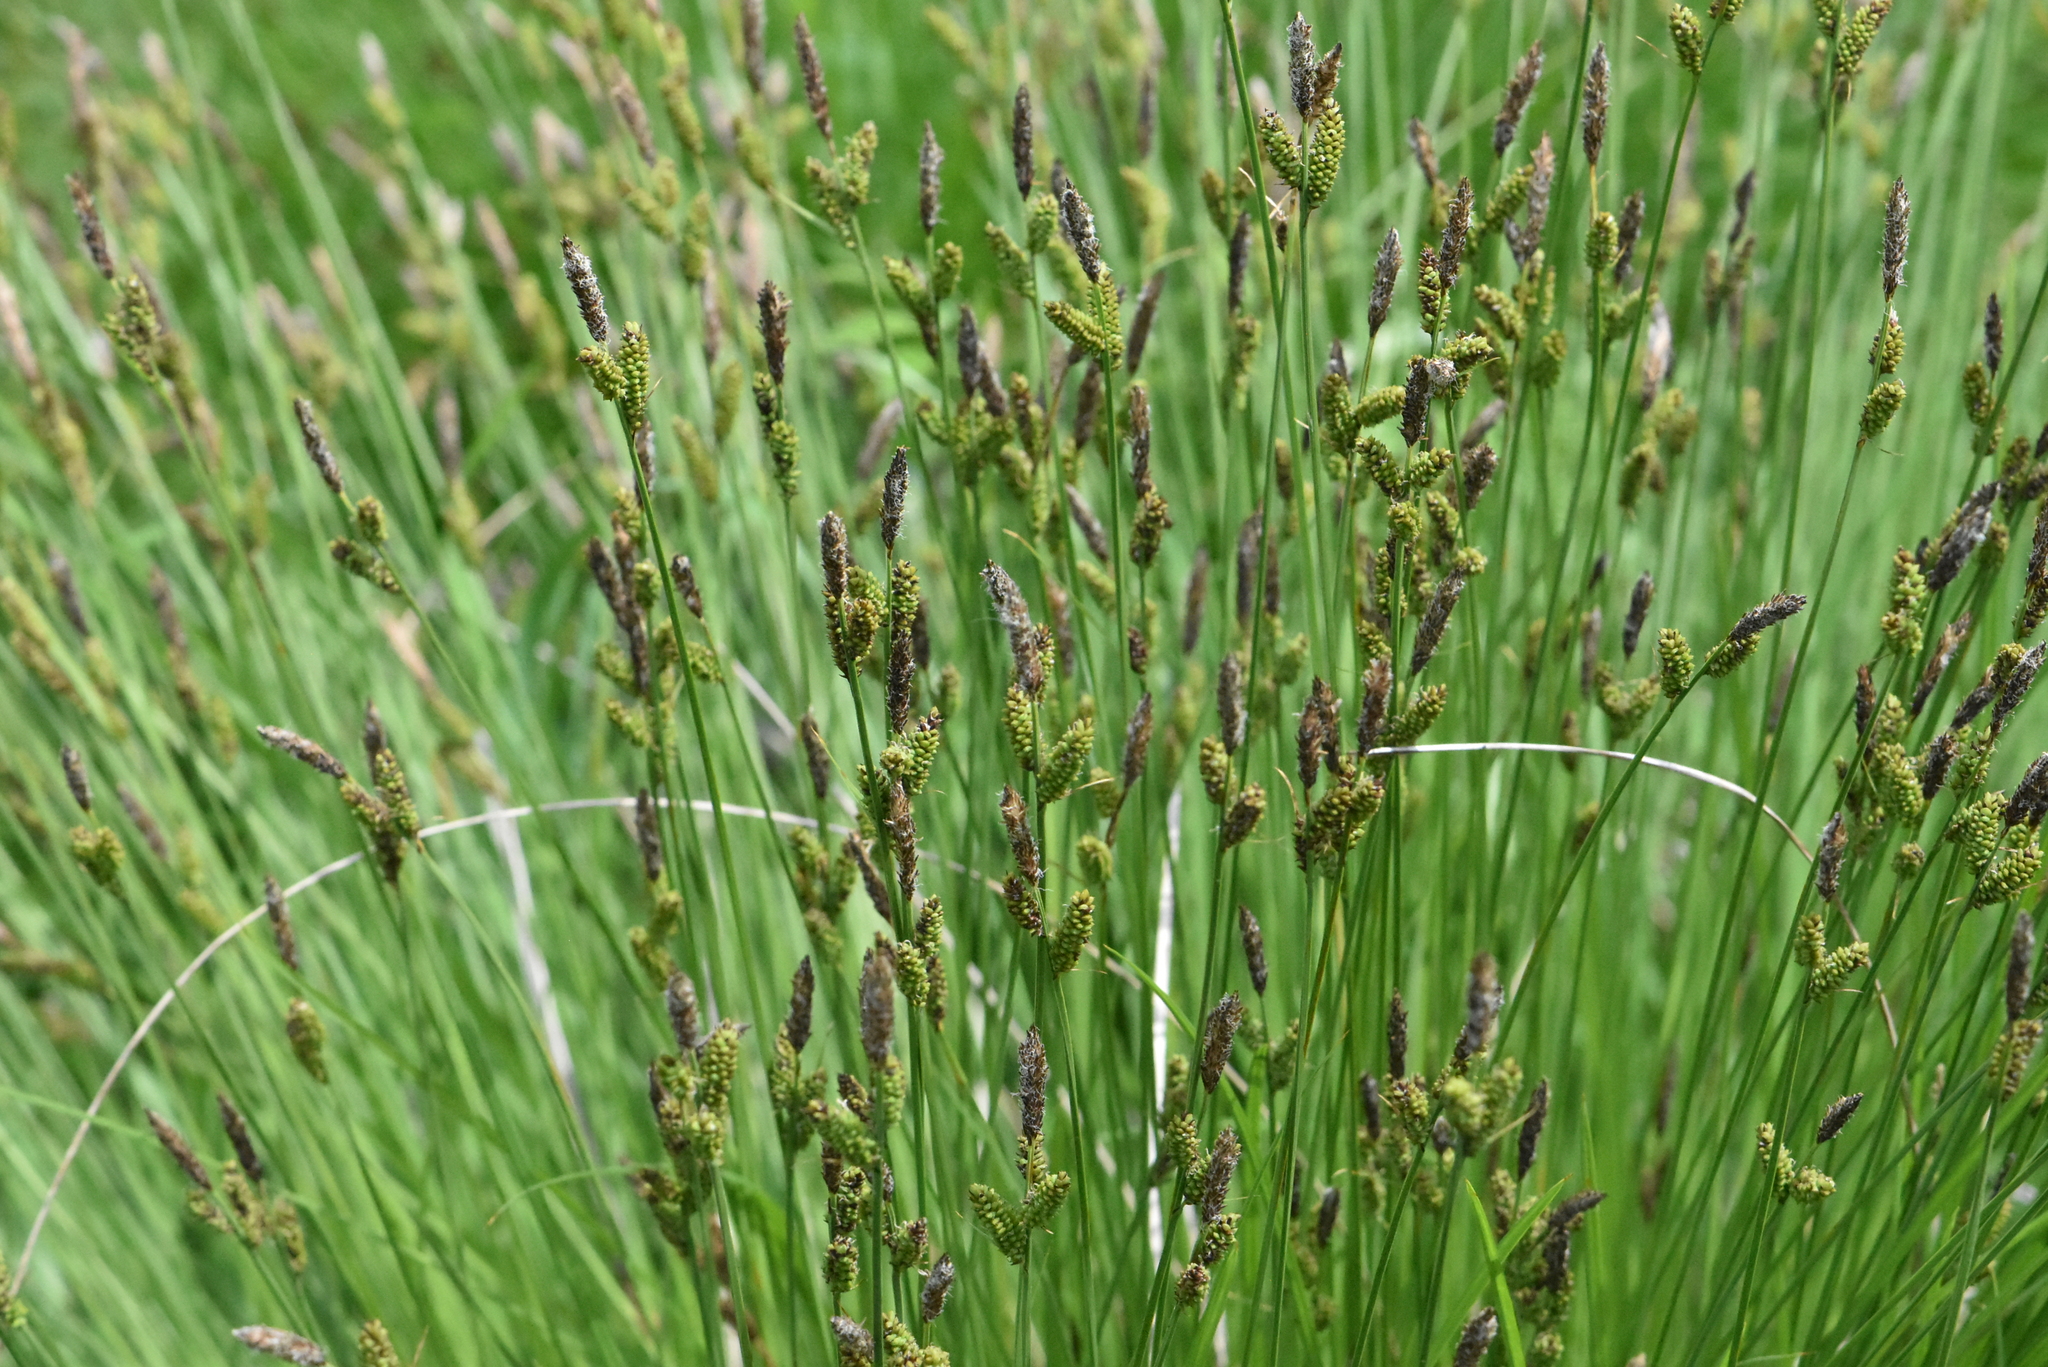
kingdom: Plantae
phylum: Tracheophyta
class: Liliopsida
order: Poales
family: Cyperaceae
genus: Carex
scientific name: Carex cespitosa
